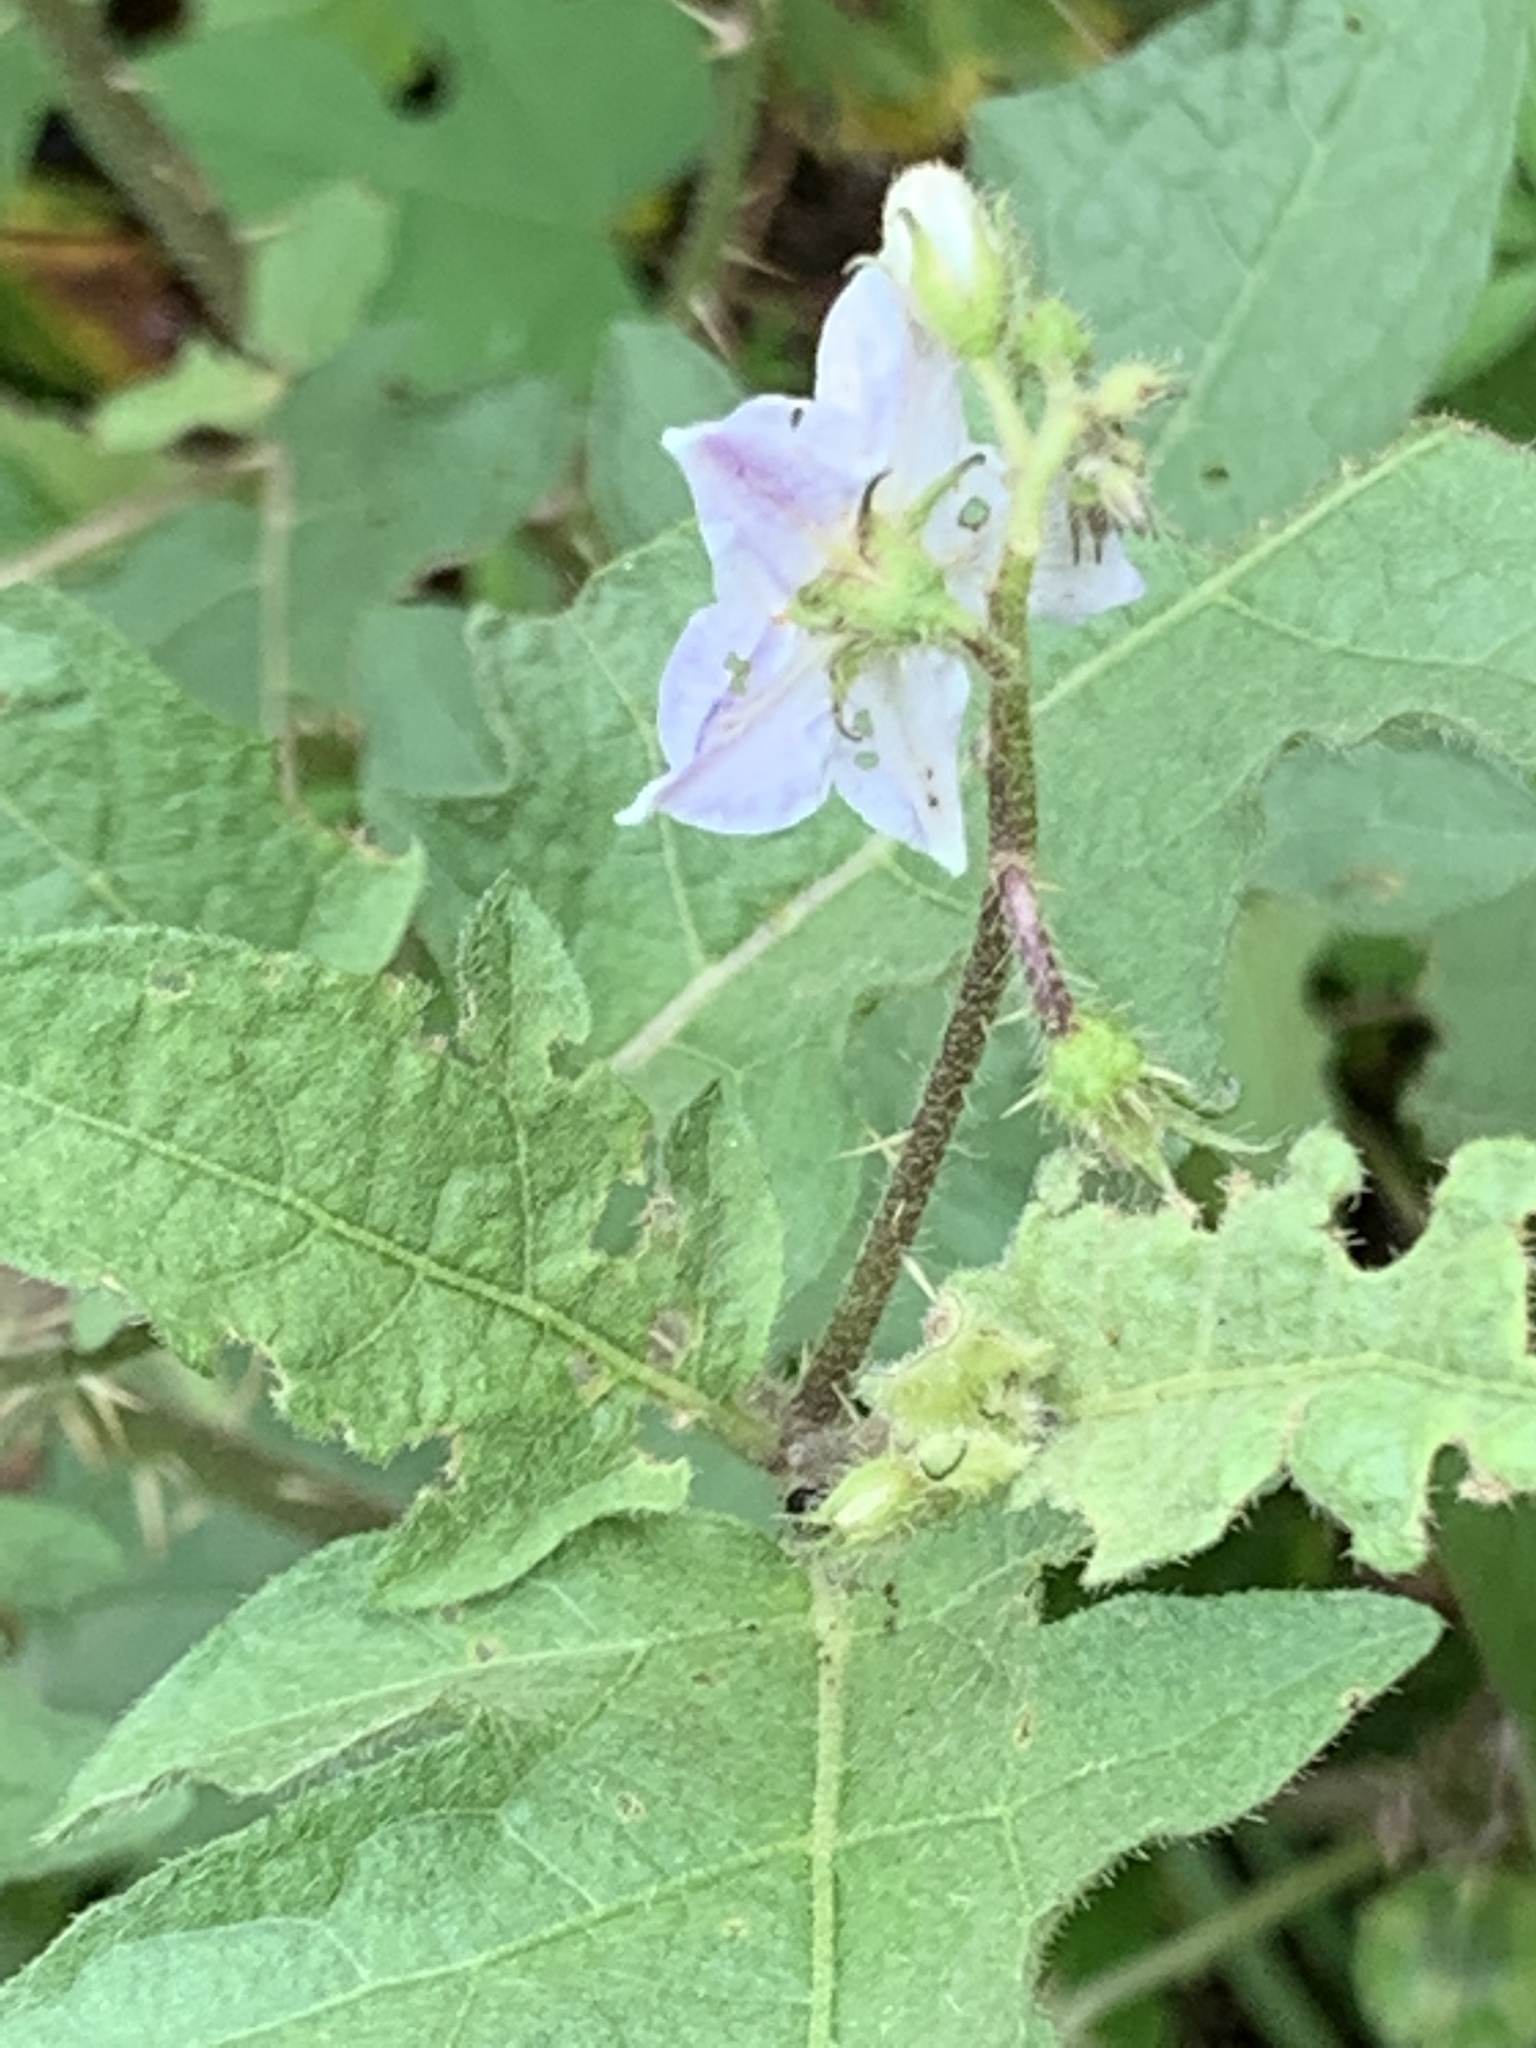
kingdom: Plantae
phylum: Tracheophyta
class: Magnoliopsida
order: Solanales
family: Solanaceae
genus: Solanum
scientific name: Solanum carolinense
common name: Horse-nettle
